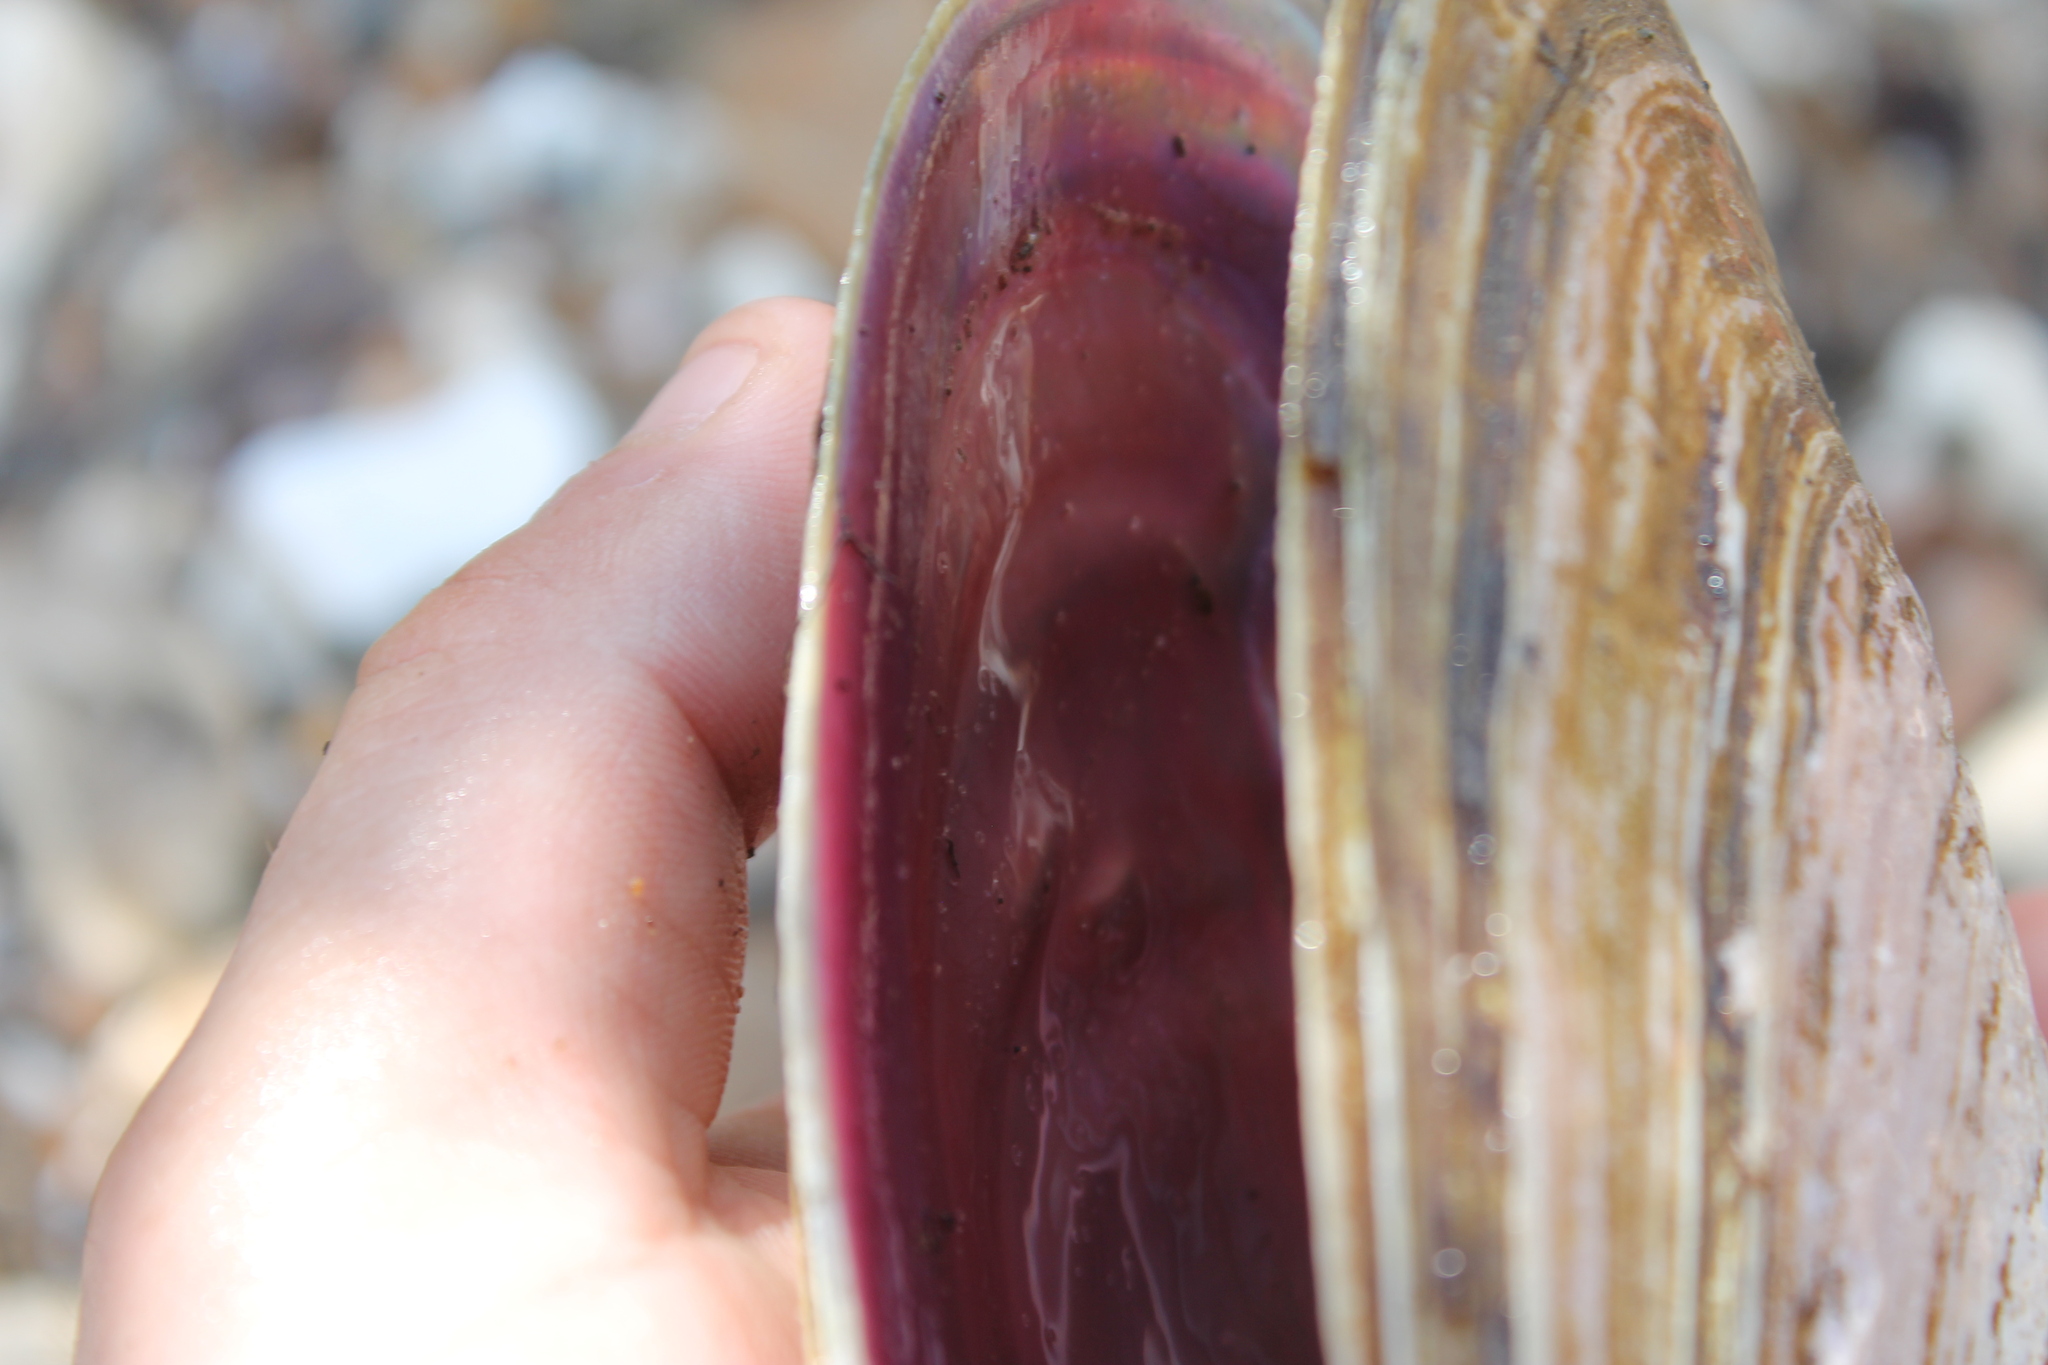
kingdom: Animalia
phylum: Mollusca
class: Bivalvia
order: Unionida
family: Unionidae
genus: Potamilus
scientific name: Potamilus alatus
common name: Pink heelsplitter
